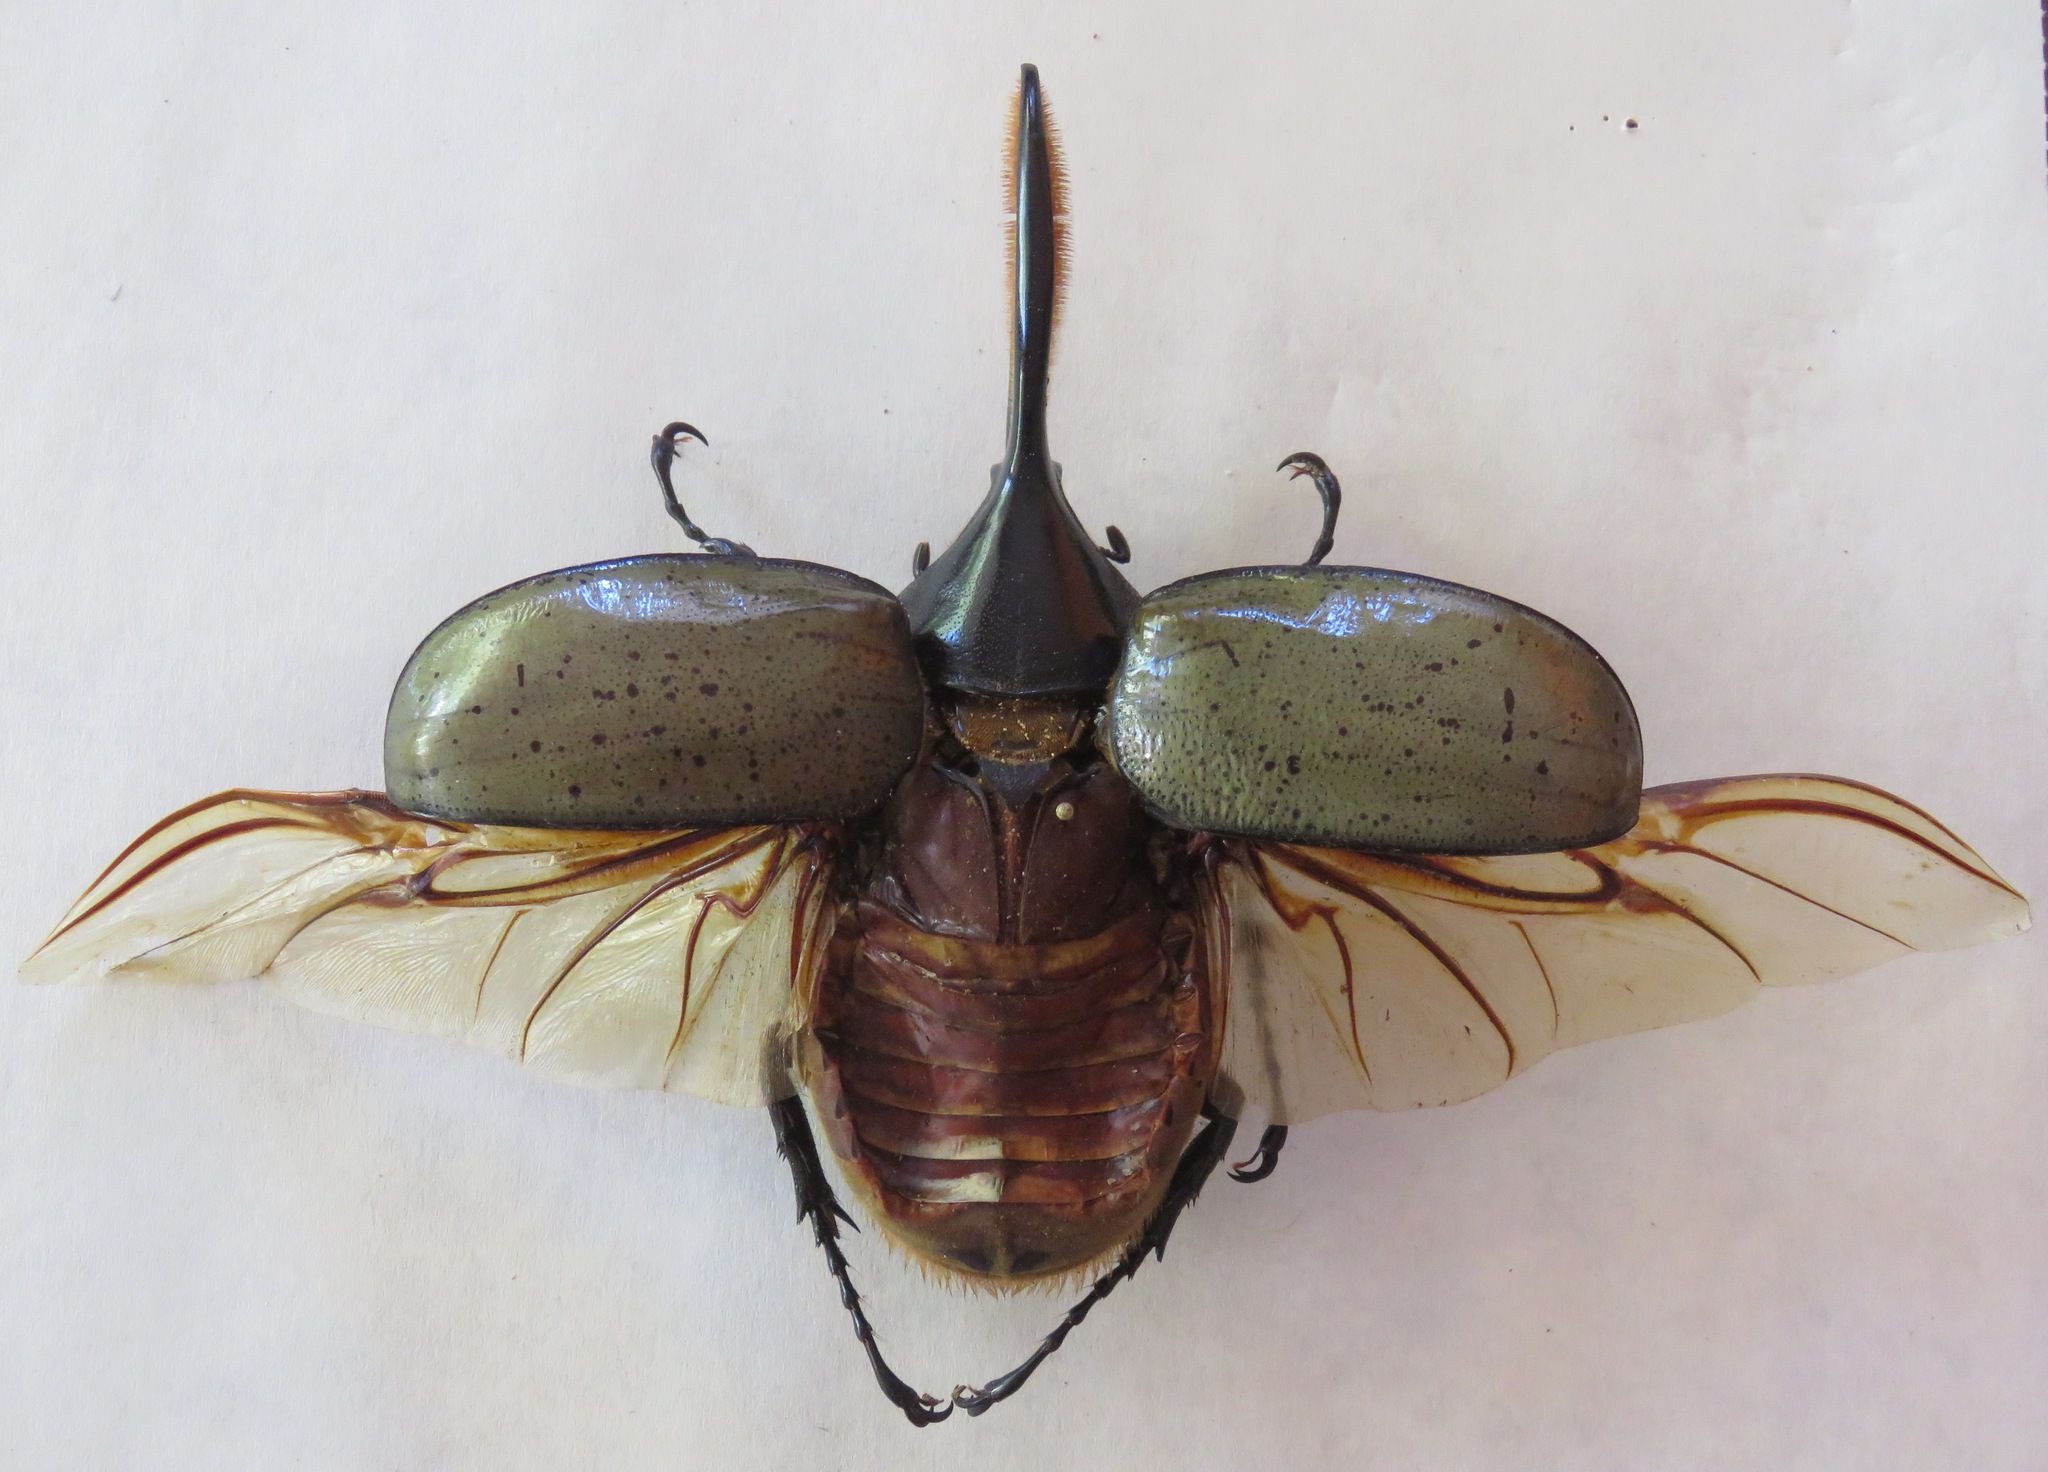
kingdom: Animalia
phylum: Arthropoda
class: Insecta
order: Coleoptera
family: Scarabaeidae
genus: Dynastes
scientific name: Dynastes
